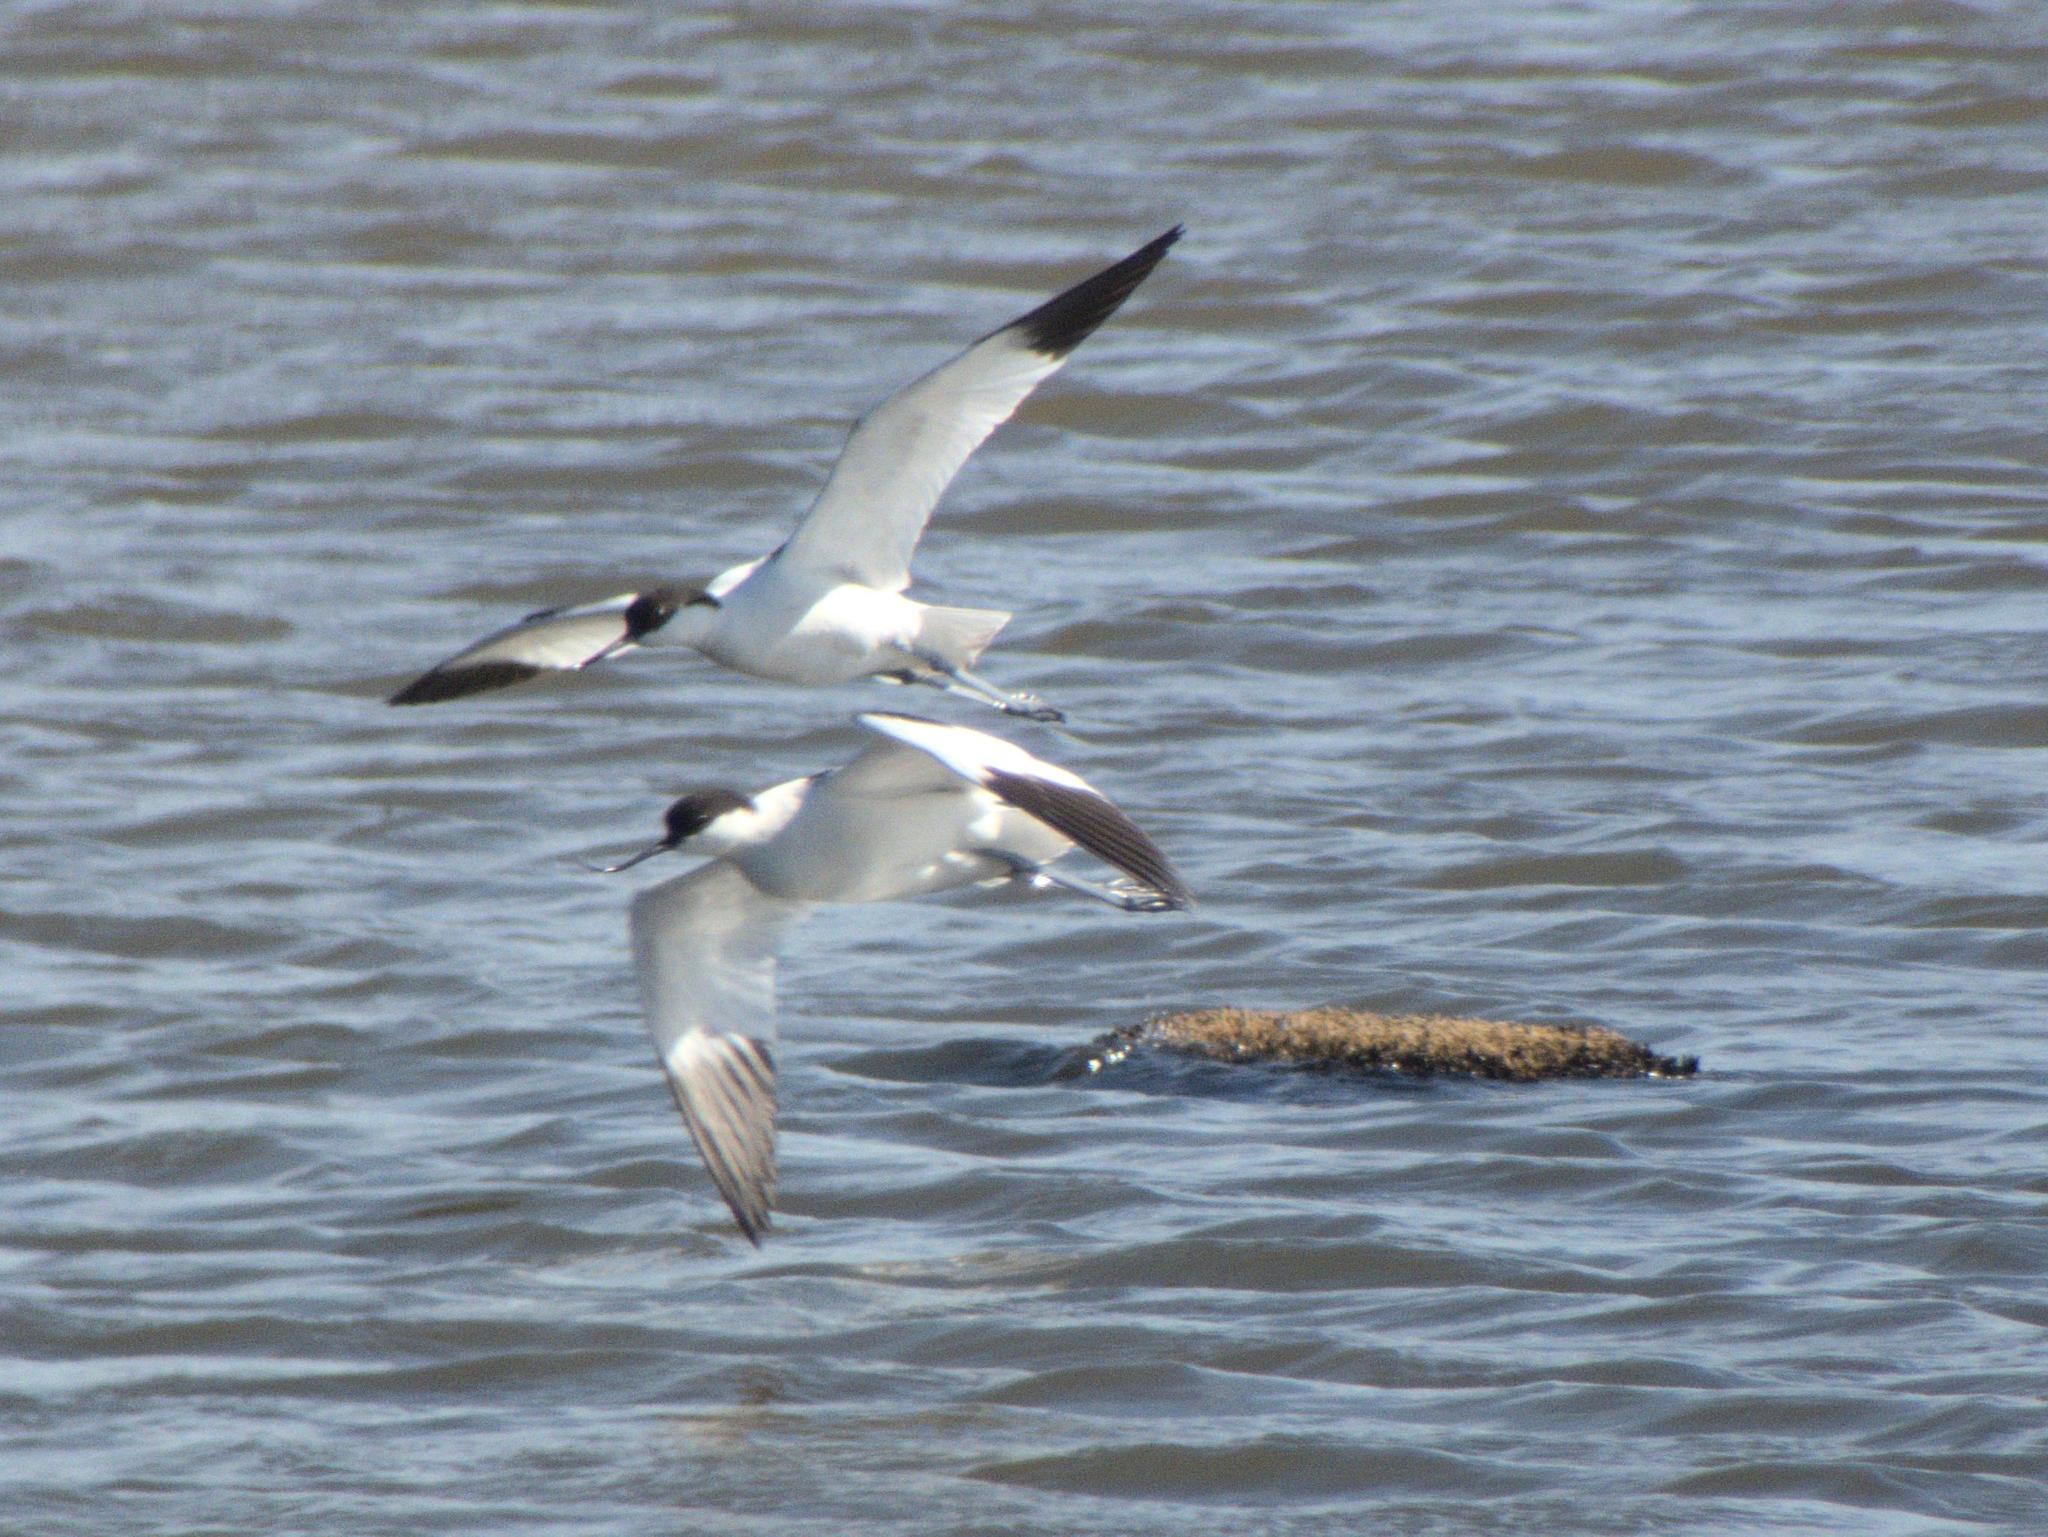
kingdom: Animalia
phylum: Chordata
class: Aves
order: Charadriiformes
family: Recurvirostridae
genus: Recurvirostra
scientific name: Recurvirostra avosetta
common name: Pied avocet
